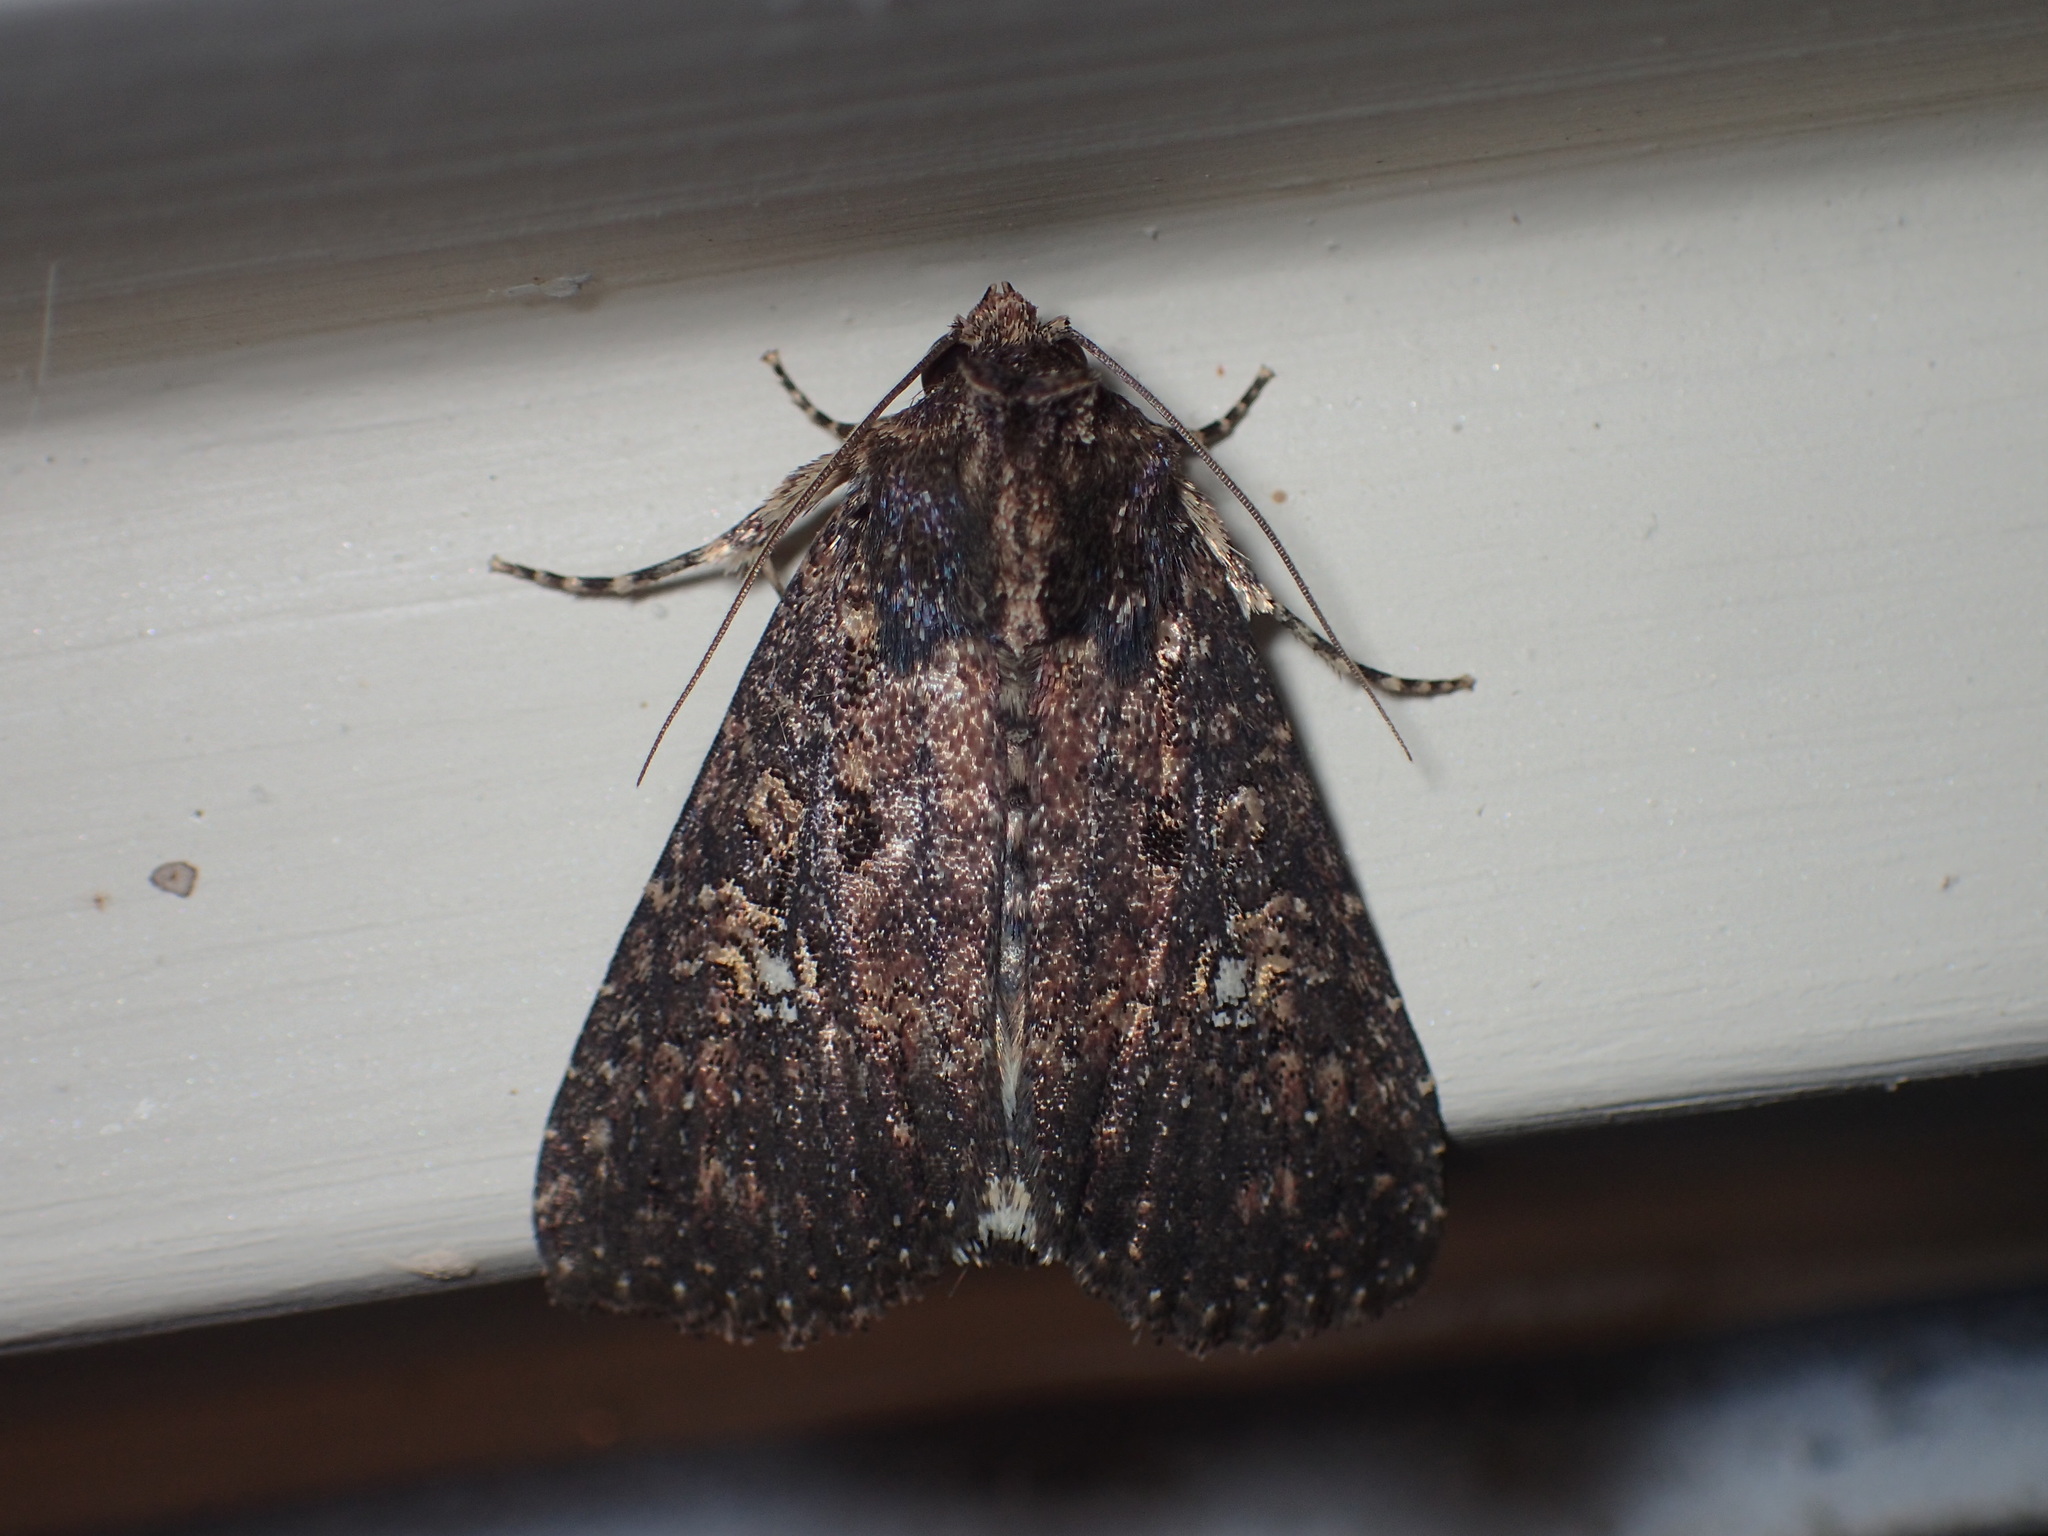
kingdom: Animalia
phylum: Arthropoda
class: Insecta
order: Lepidoptera
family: Noctuidae
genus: Condica
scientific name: Condica vecors
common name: Dusky groundling
